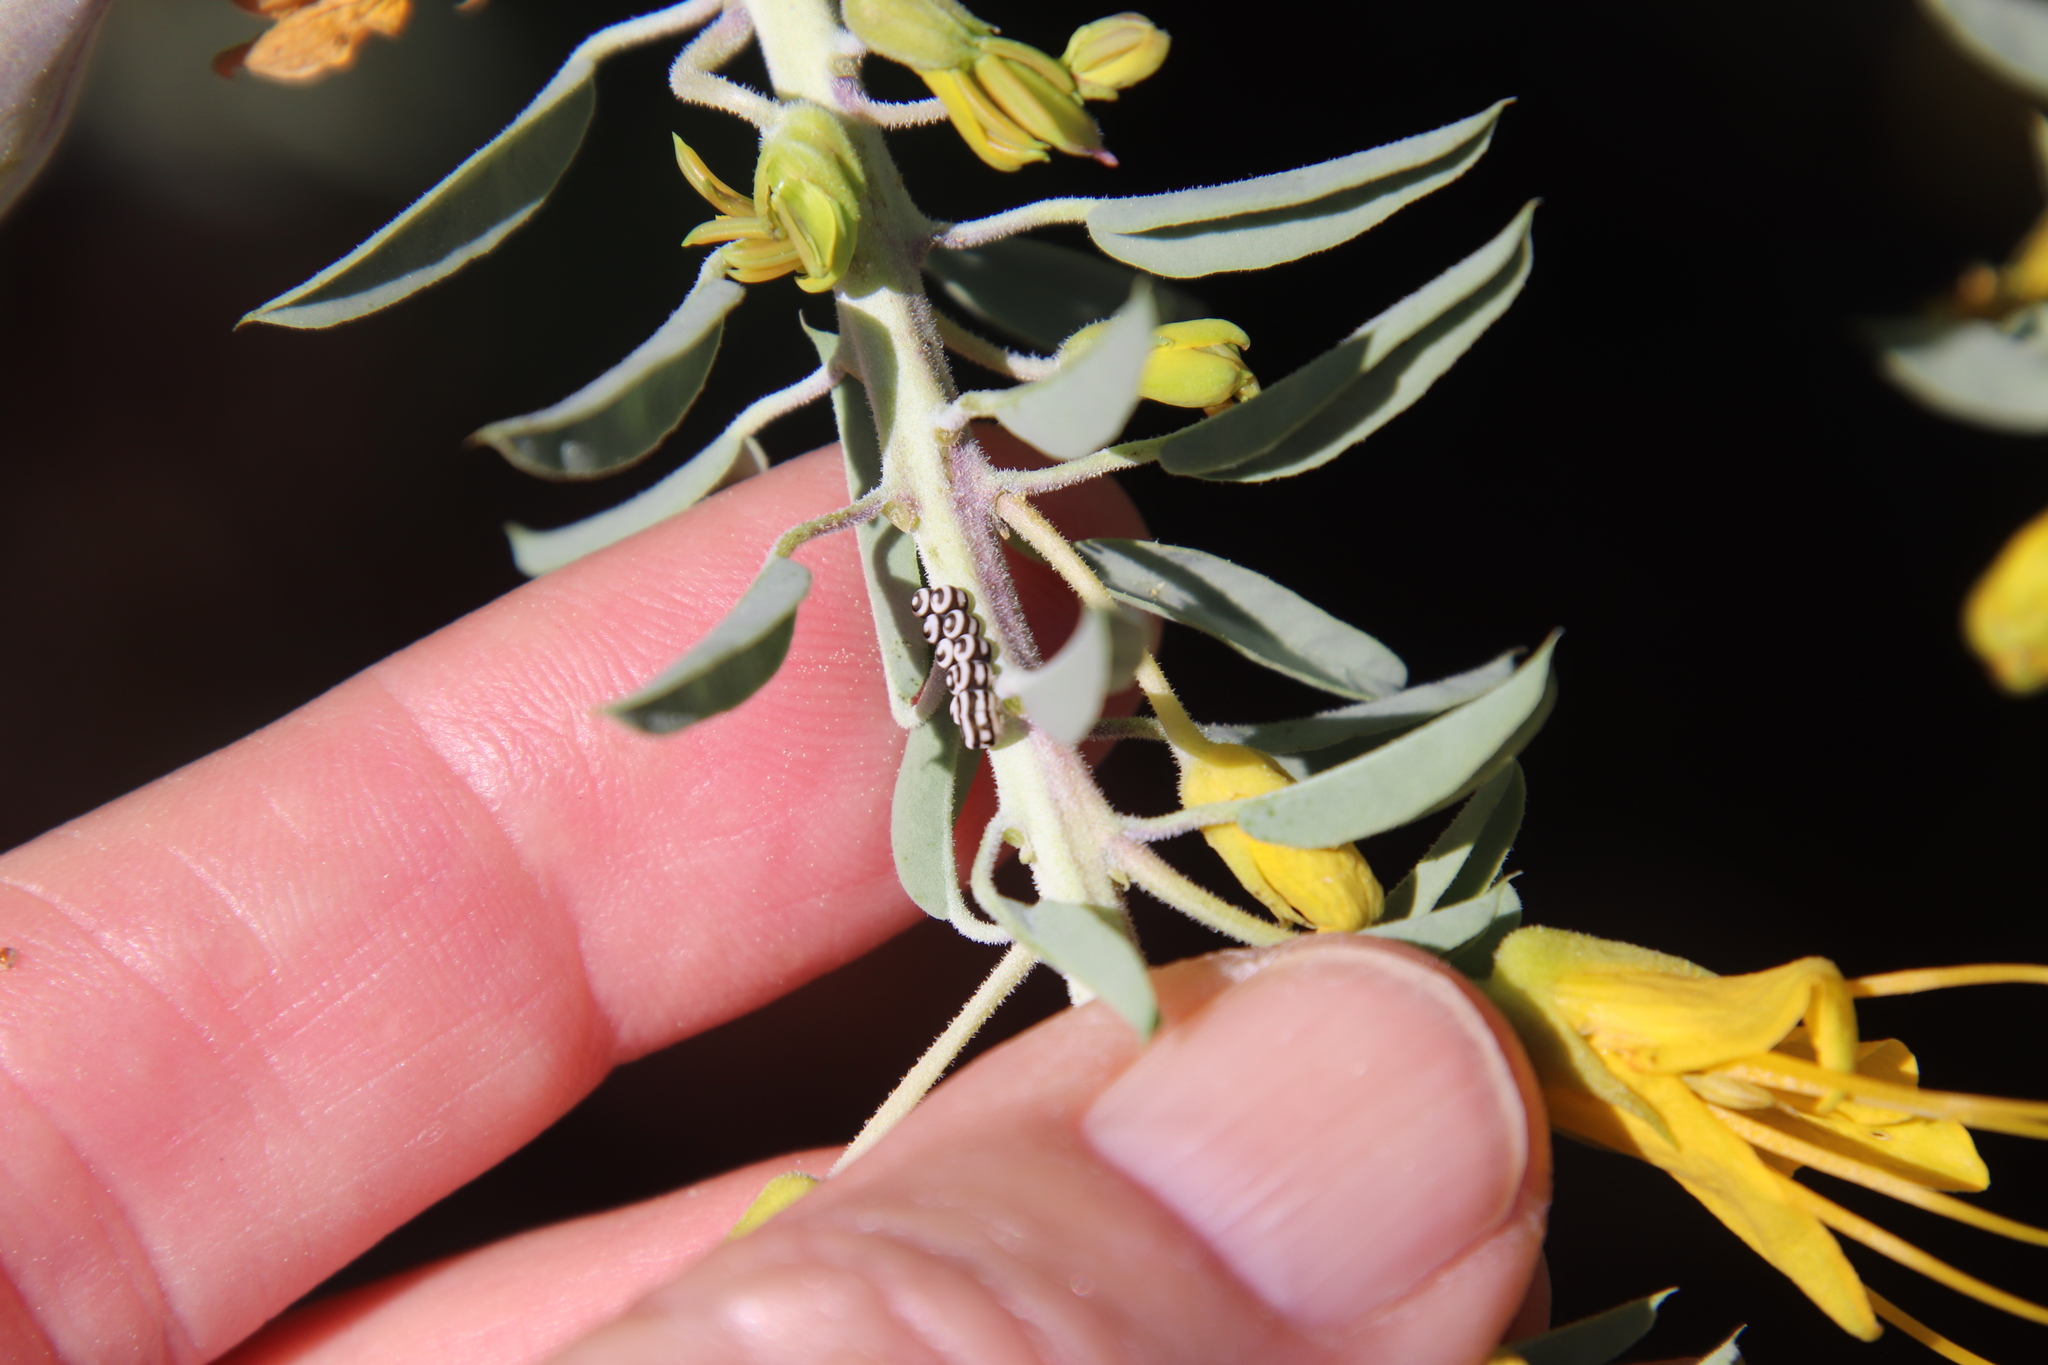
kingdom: Animalia
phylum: Arthropoda
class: Insecta
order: Hemiptera
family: Pentatomidae
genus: Murgantia
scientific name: Murgantia histrionica
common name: Harlequin bug
